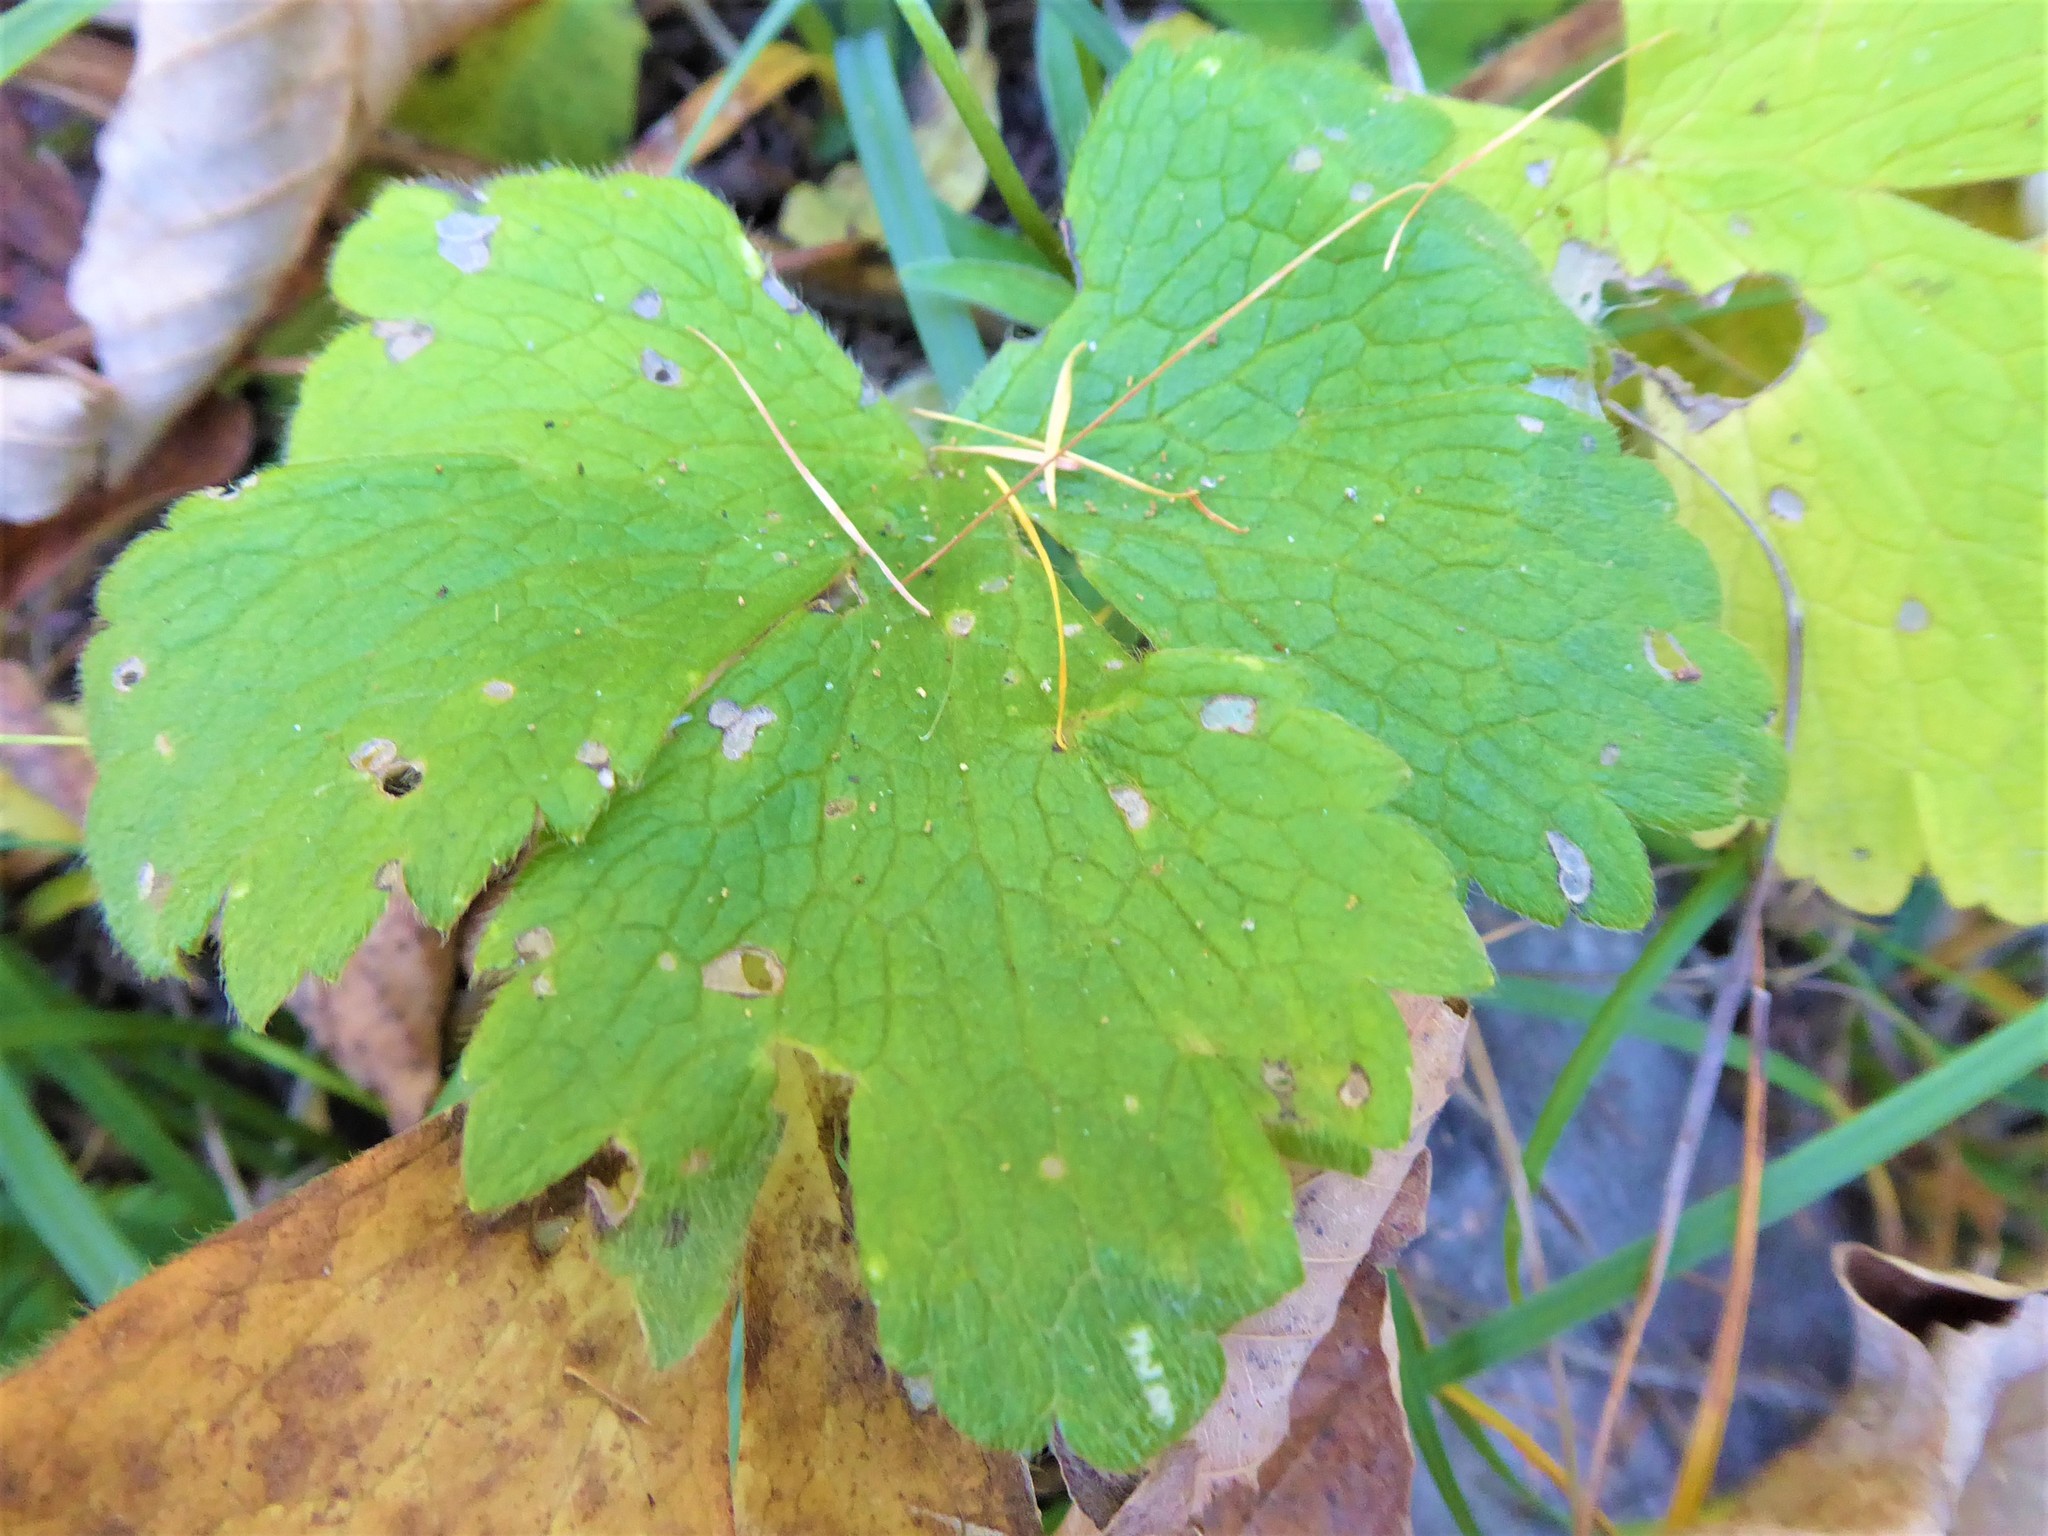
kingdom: Plantae
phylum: Tracheophyta
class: Magnoliopsida
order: Ranunculales
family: Ranunculaceae
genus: Ranunculus
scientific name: Ranunculus lanuginosus
